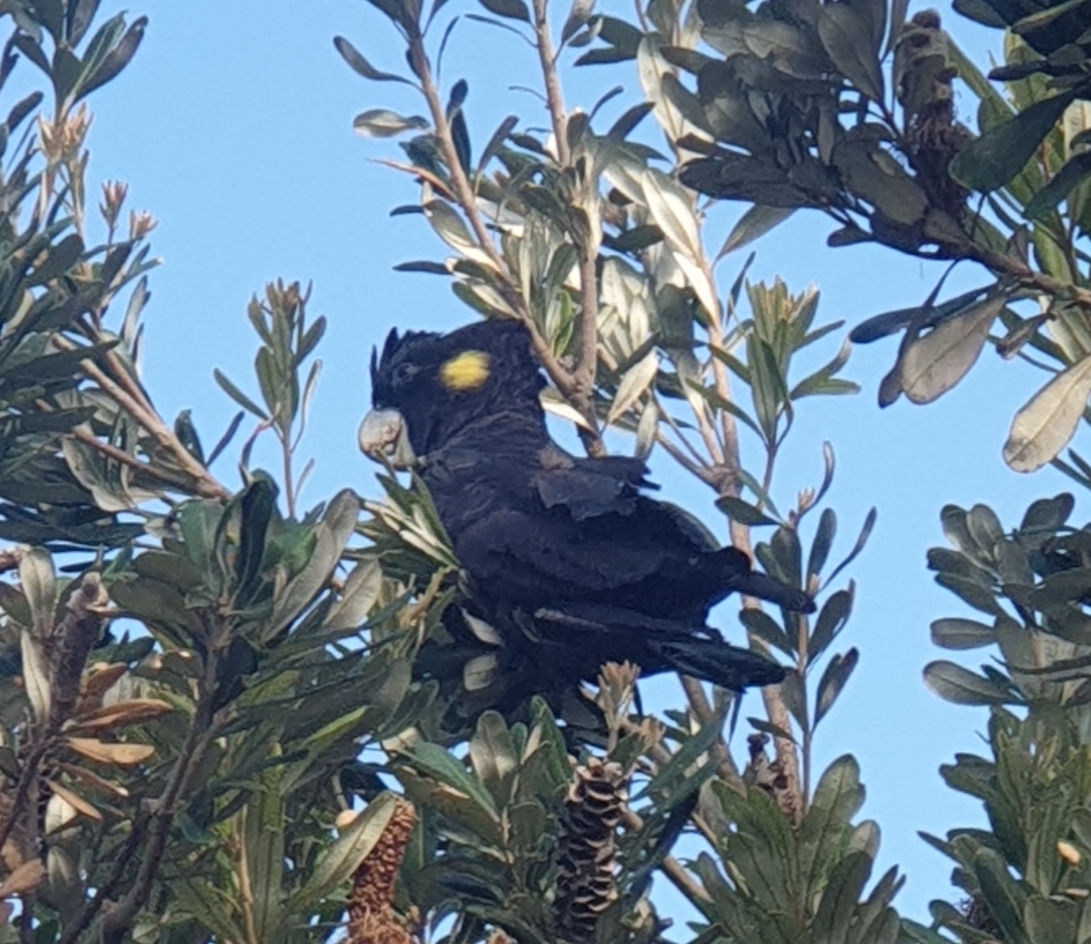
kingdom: Animalia
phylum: Chordata
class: Aves
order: Psittaciformes
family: Cacatuidae
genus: Zanda
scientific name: Zanda funerea
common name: Yellow-tailed black-cockatoo
